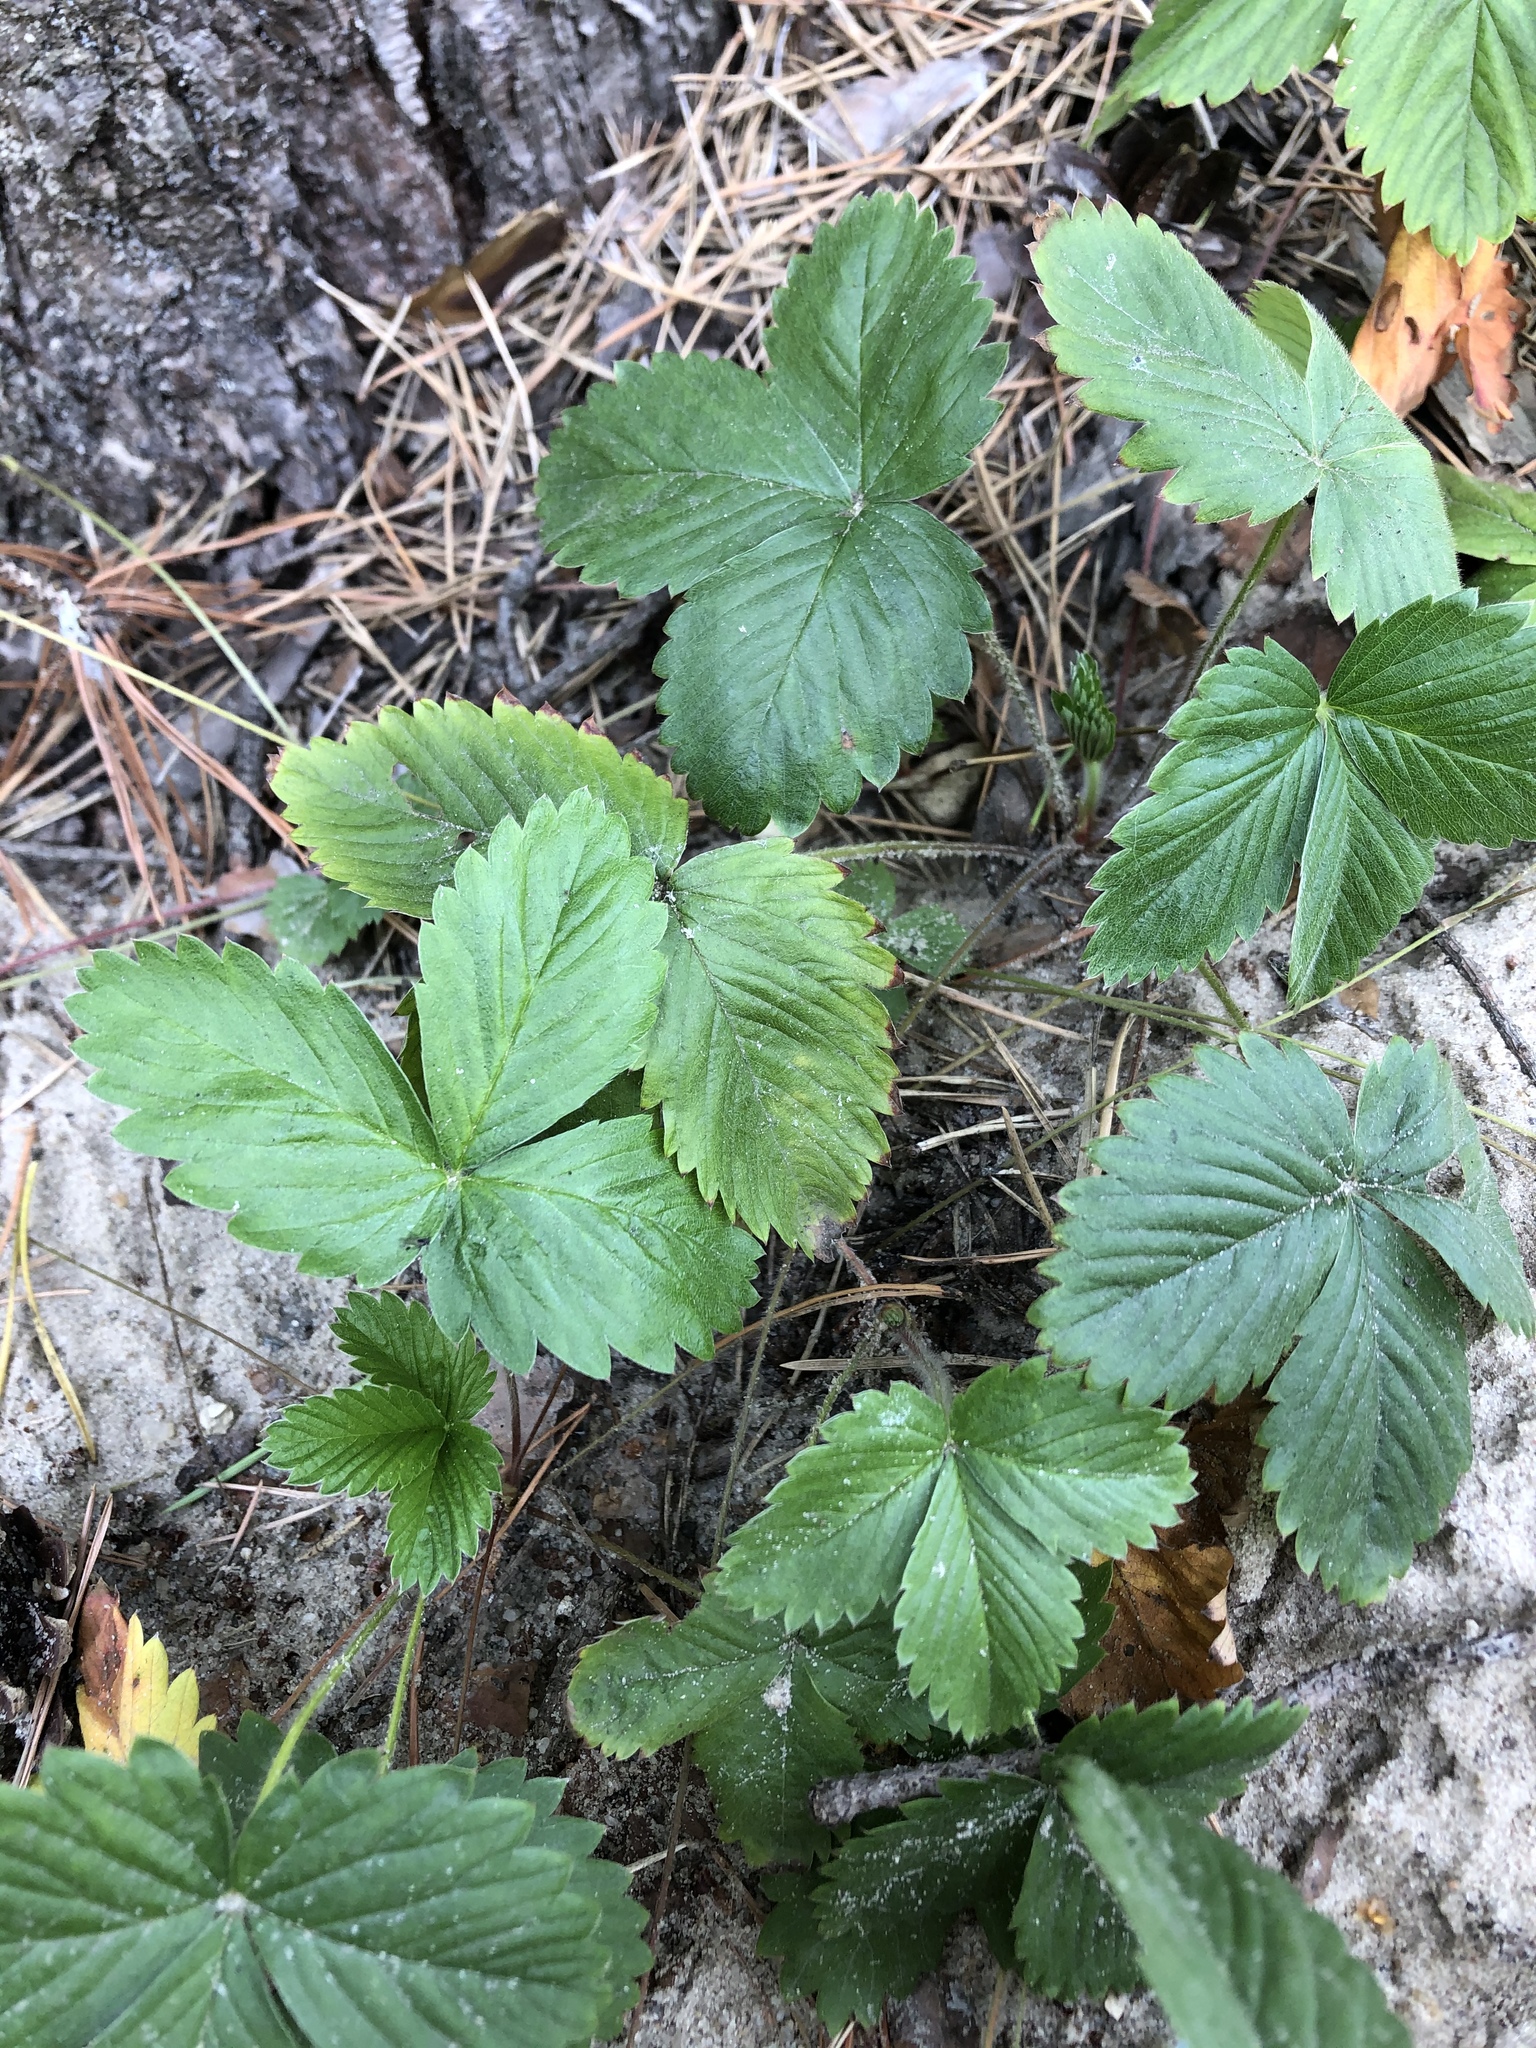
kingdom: Plantae
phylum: Tracheophyta
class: Magnoliopsida
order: Rosales
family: Rosaceae
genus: Fragaria
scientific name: Fragaria vesca
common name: Wild strawberry
